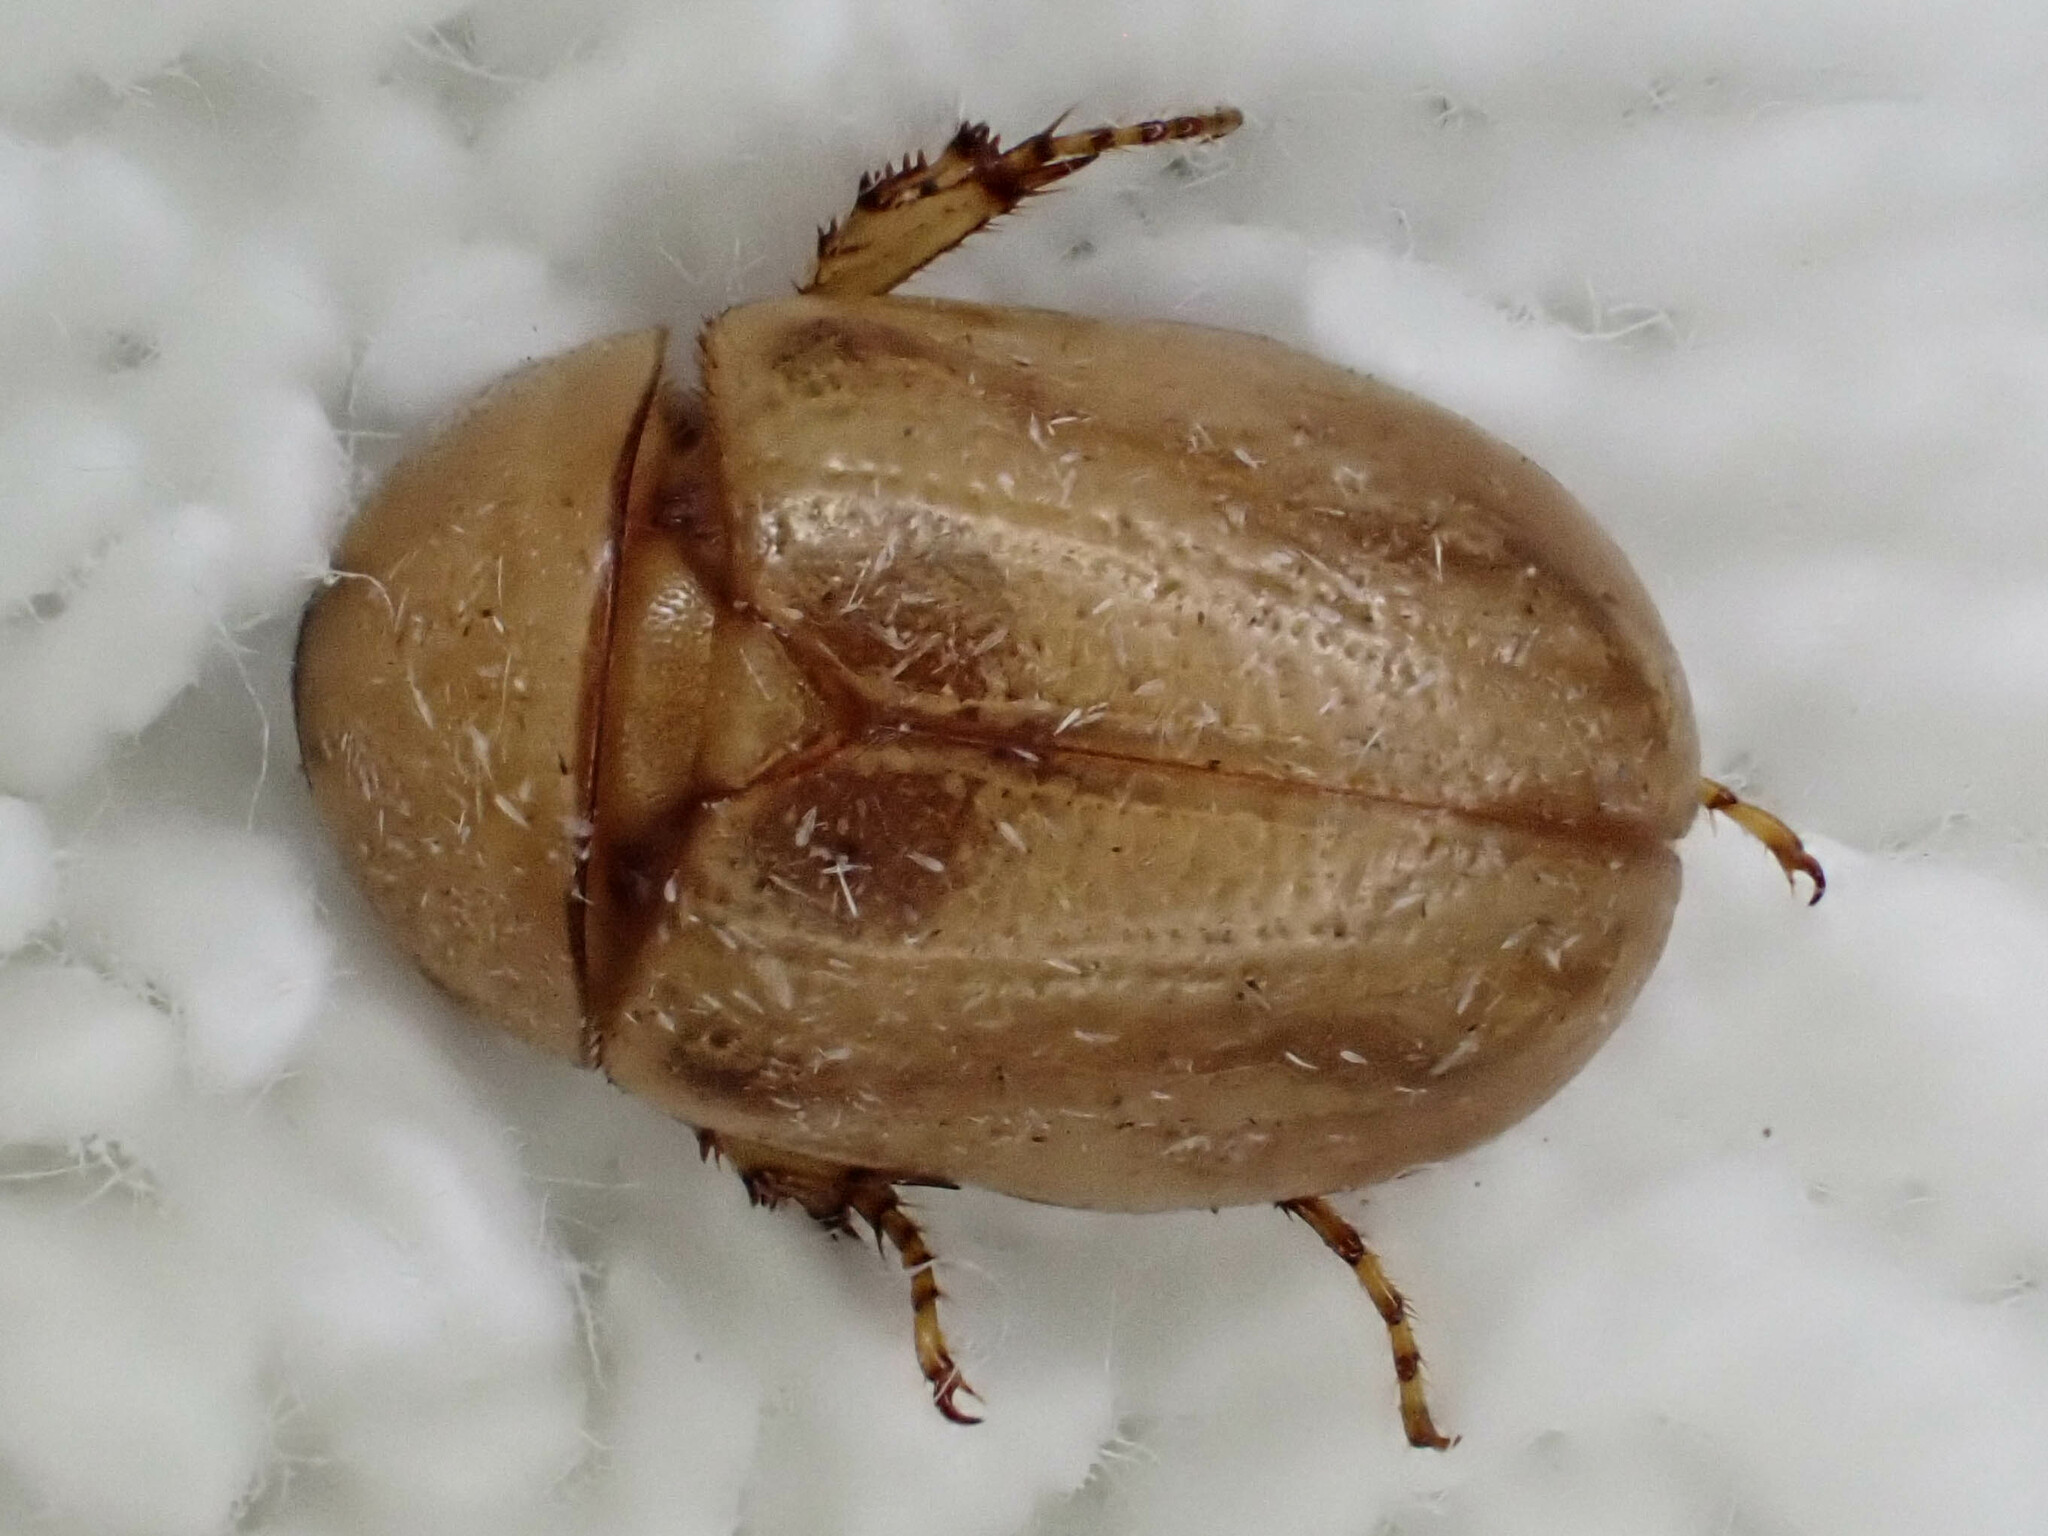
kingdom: Animalia
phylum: Arthropoda
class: Insecta
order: Coleoptera
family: Scarabaeidae
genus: Cyclocephala
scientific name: Cyclocephala lunulata
